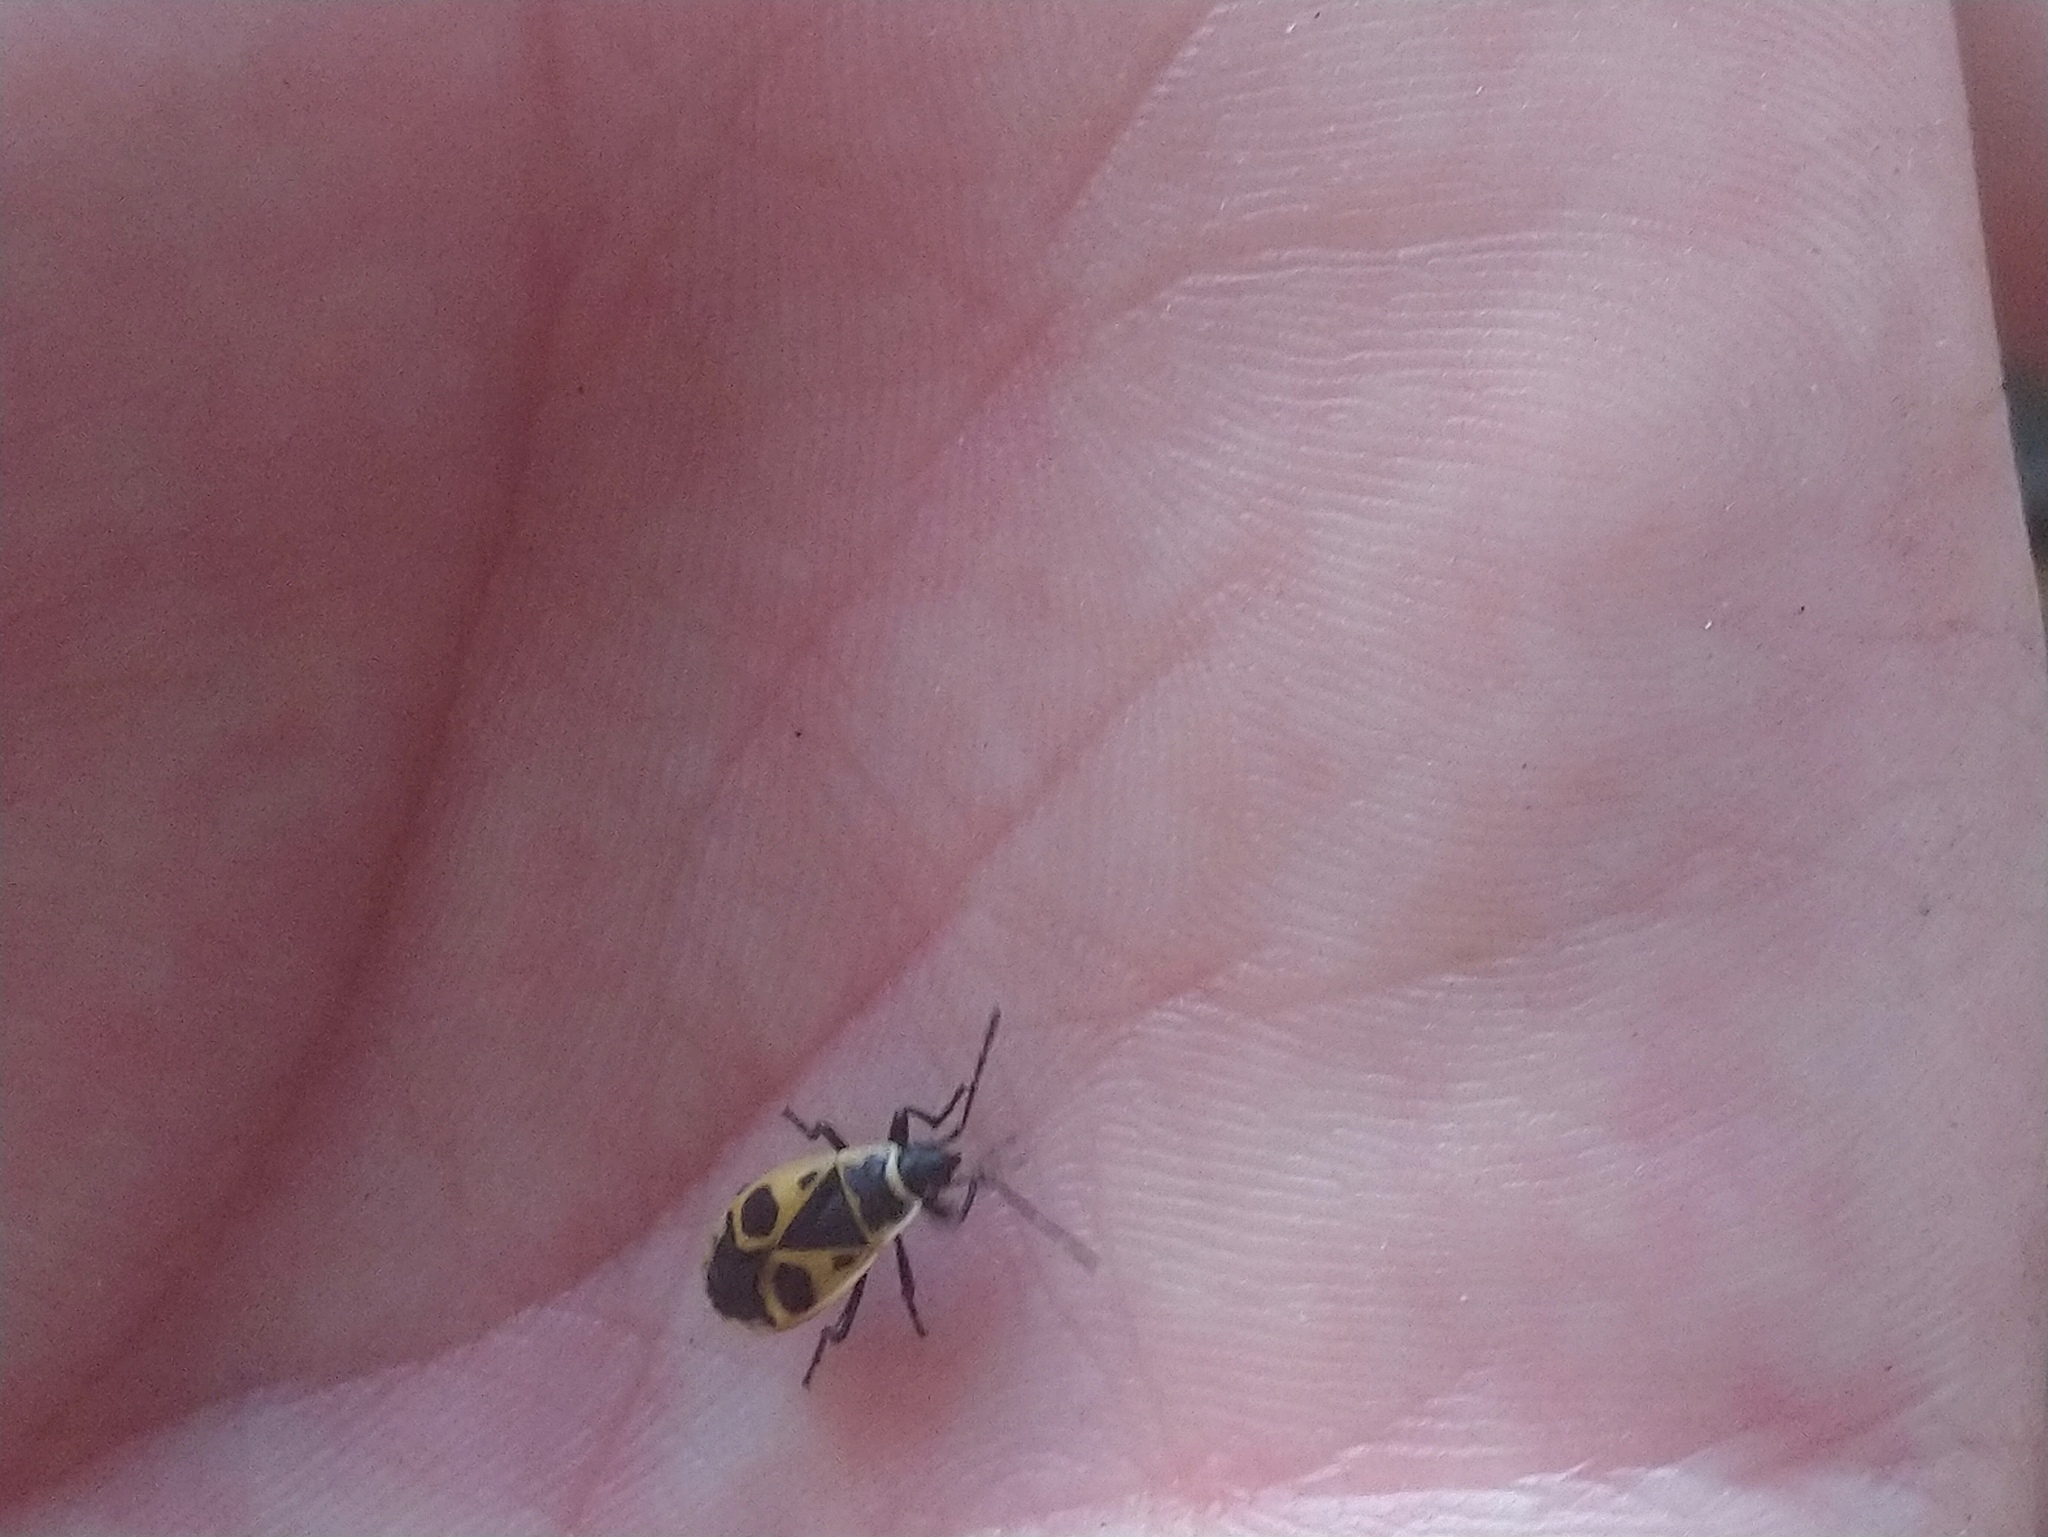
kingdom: Animalia
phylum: Arthropoda
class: Insecta
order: Hemiptera
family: Pyrrhocoridae
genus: Pyrrhocoris
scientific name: Pyrrhocoris apterus
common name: Firebug
